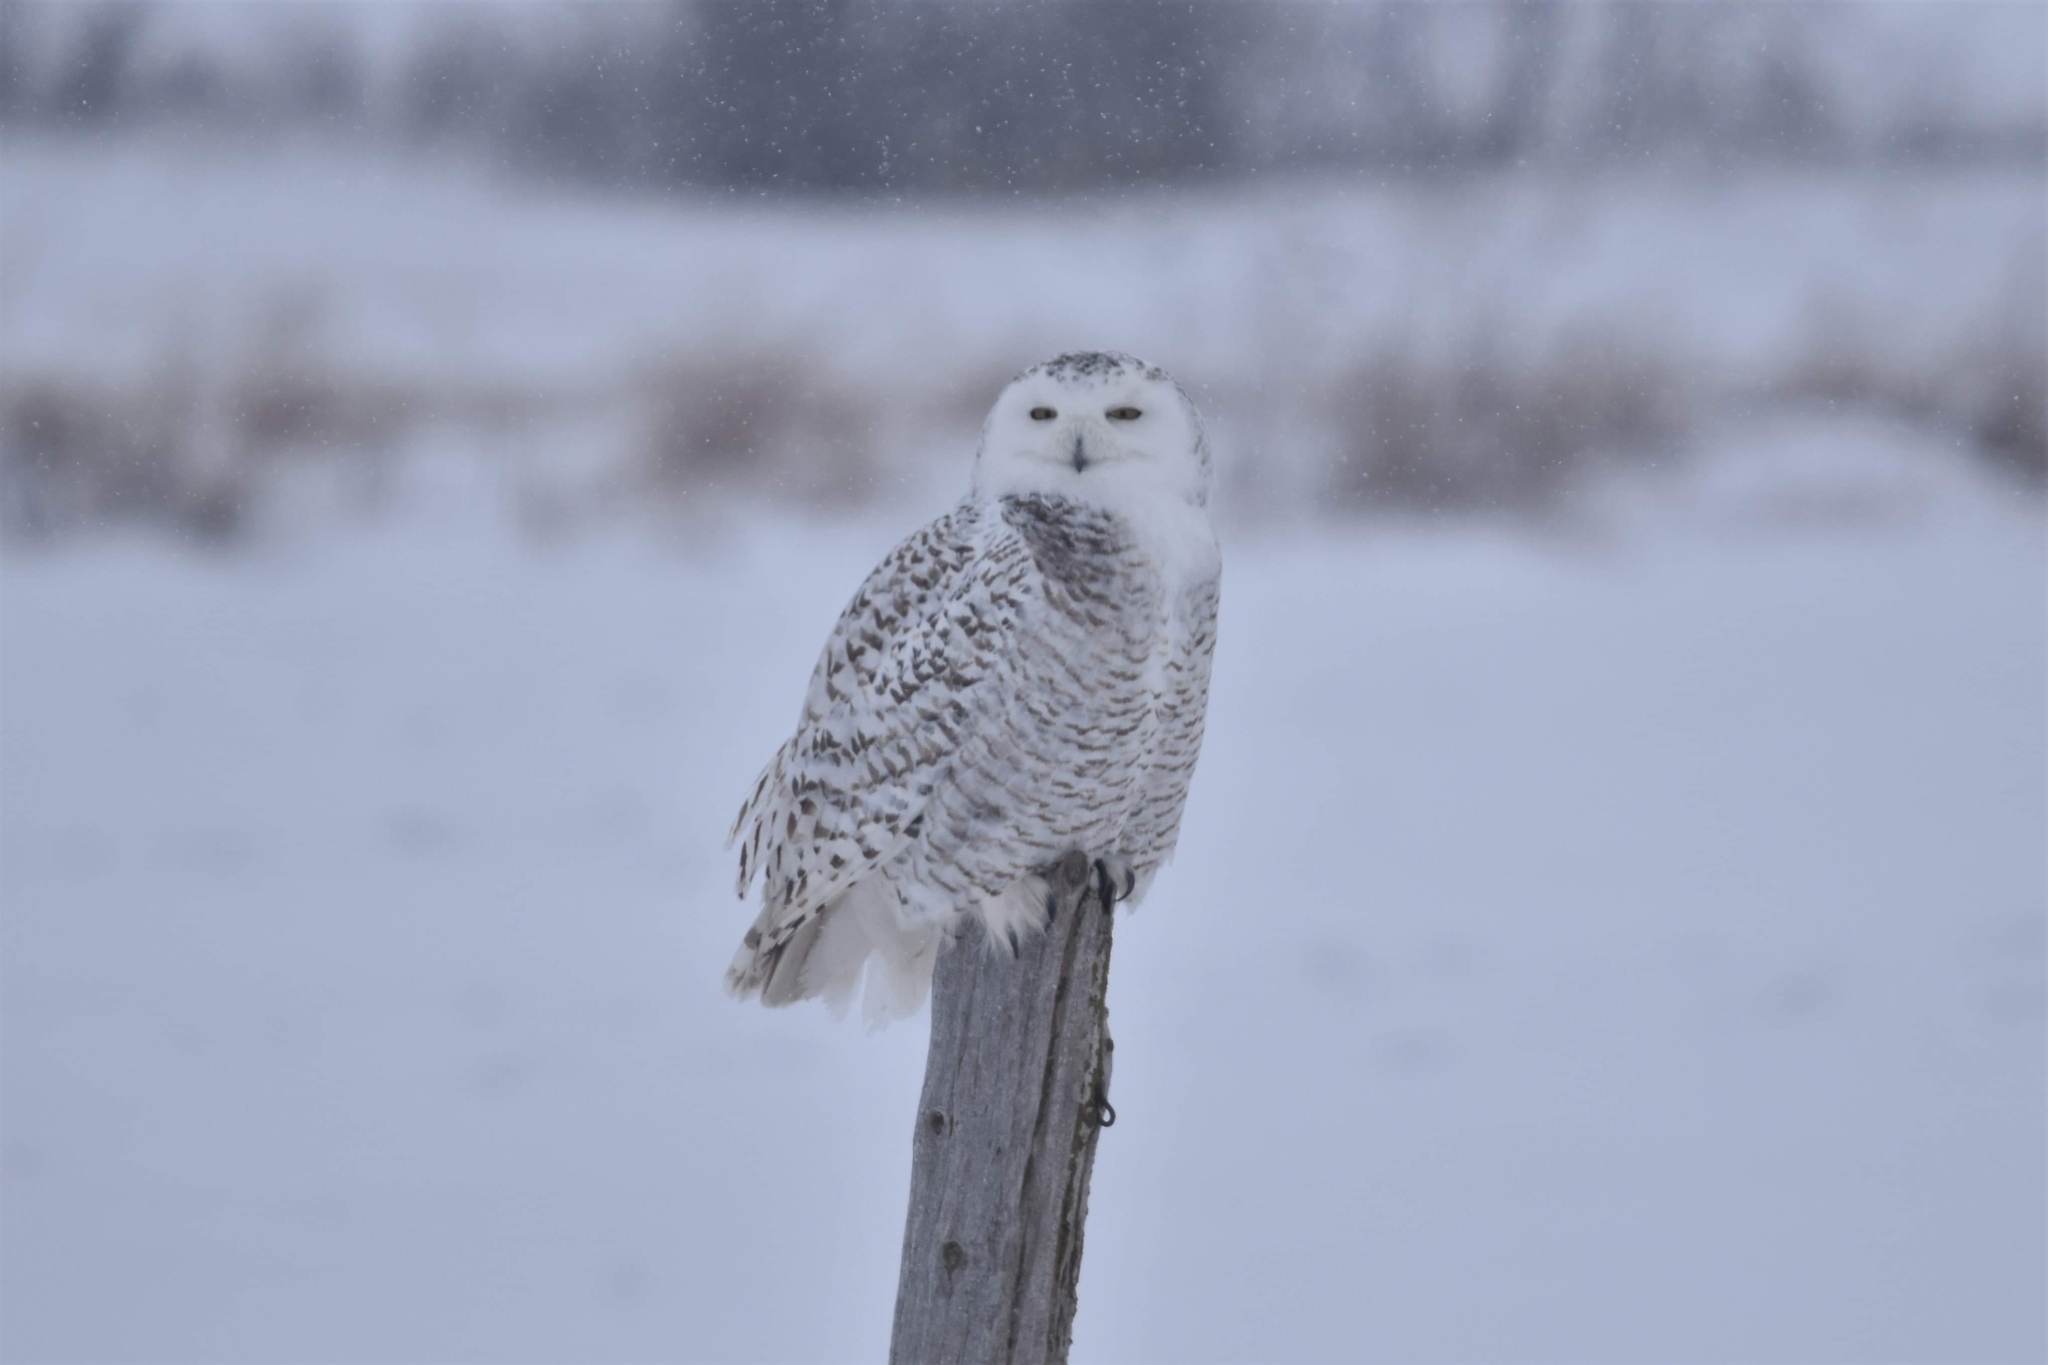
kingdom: Animalia
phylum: Chordata
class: Aves
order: Strigiformes
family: Strigidae
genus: Bubo
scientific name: Bubo scandiacus
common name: Snowy owl
